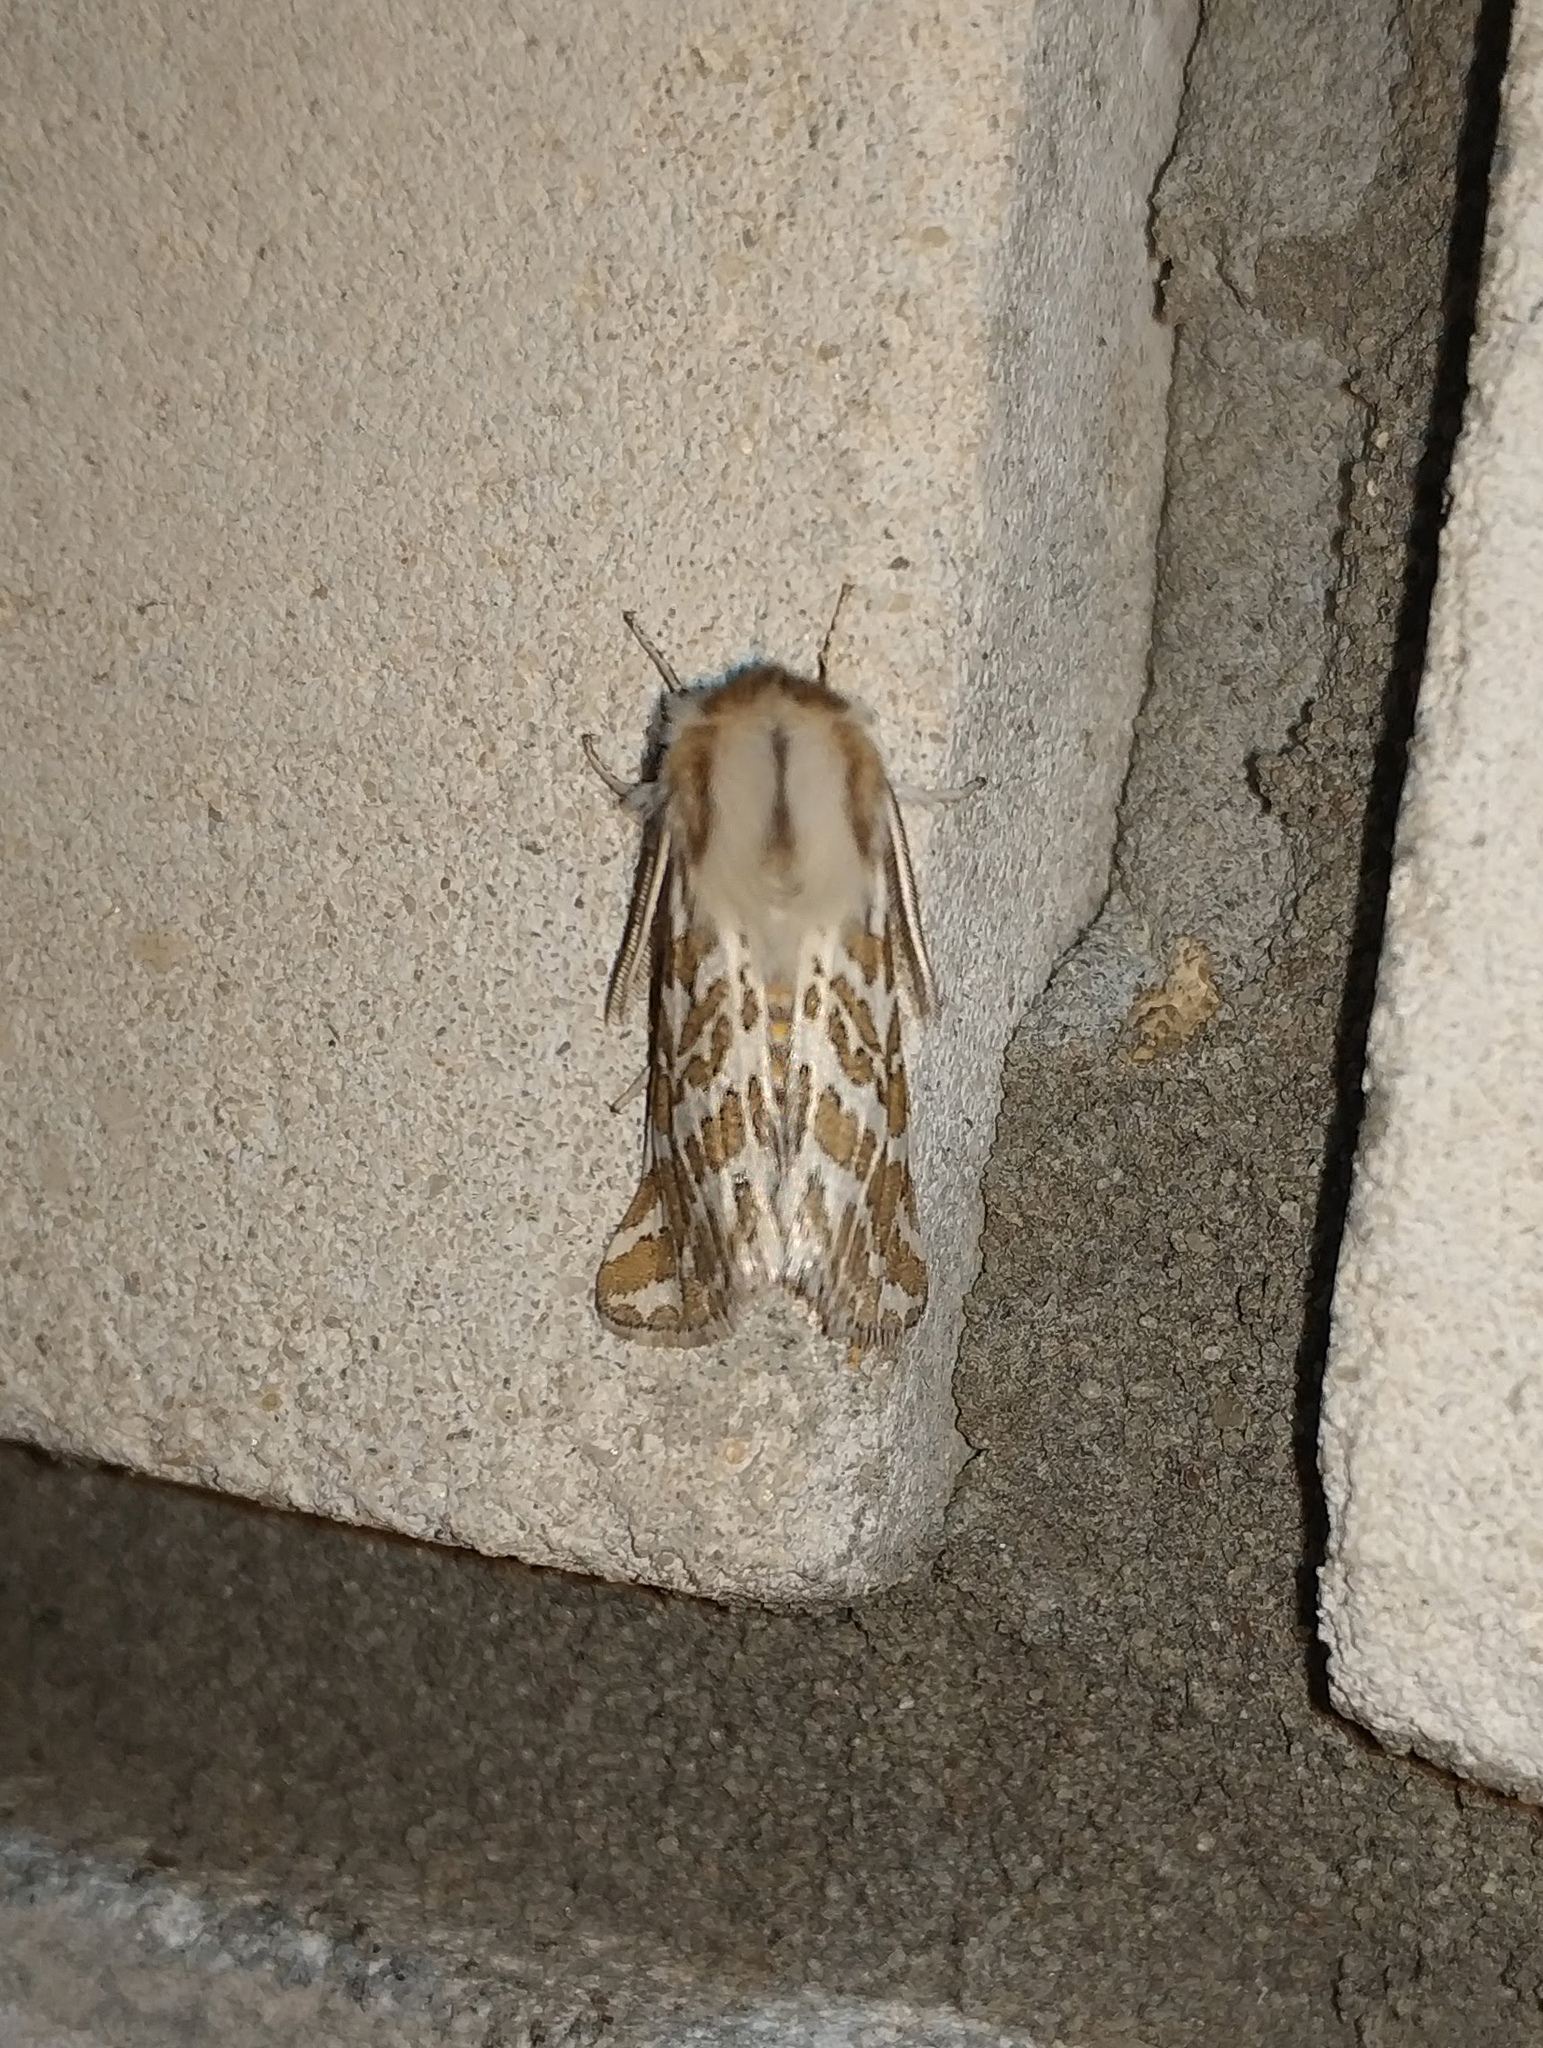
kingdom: Animalia
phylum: Arthropoda
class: Insecta
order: Lepidoptera
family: Erebidae
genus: Lacydes
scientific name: Lacydes spectabilis
